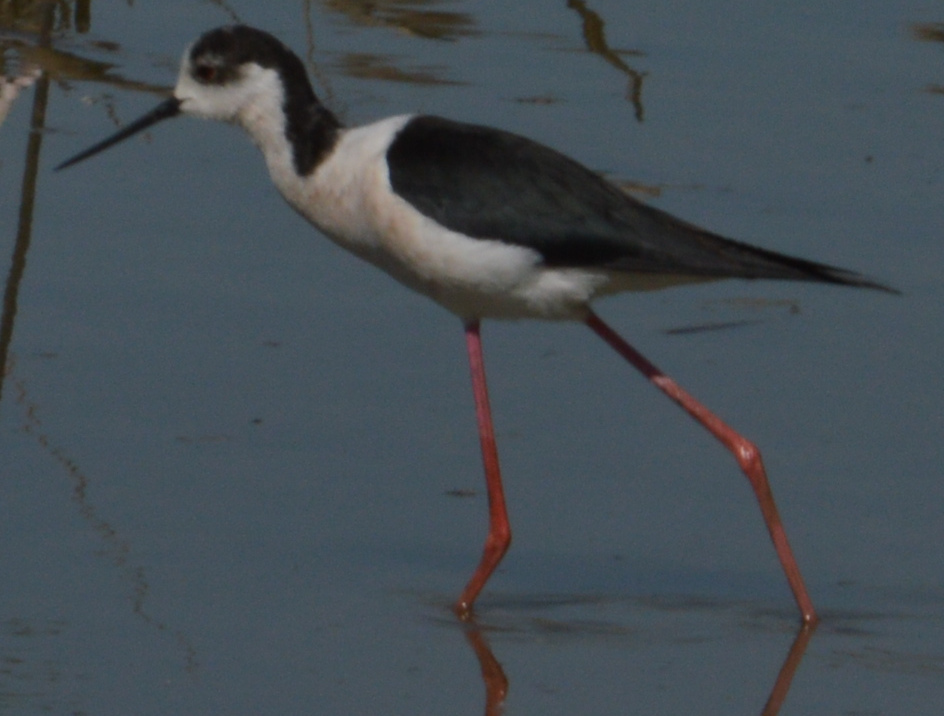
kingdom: Animalia
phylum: Chordata
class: Aves
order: Charadriiformes
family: Recurvirostridae
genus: Himantopus
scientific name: Himantopus himantopus
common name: Black-winged stilt
